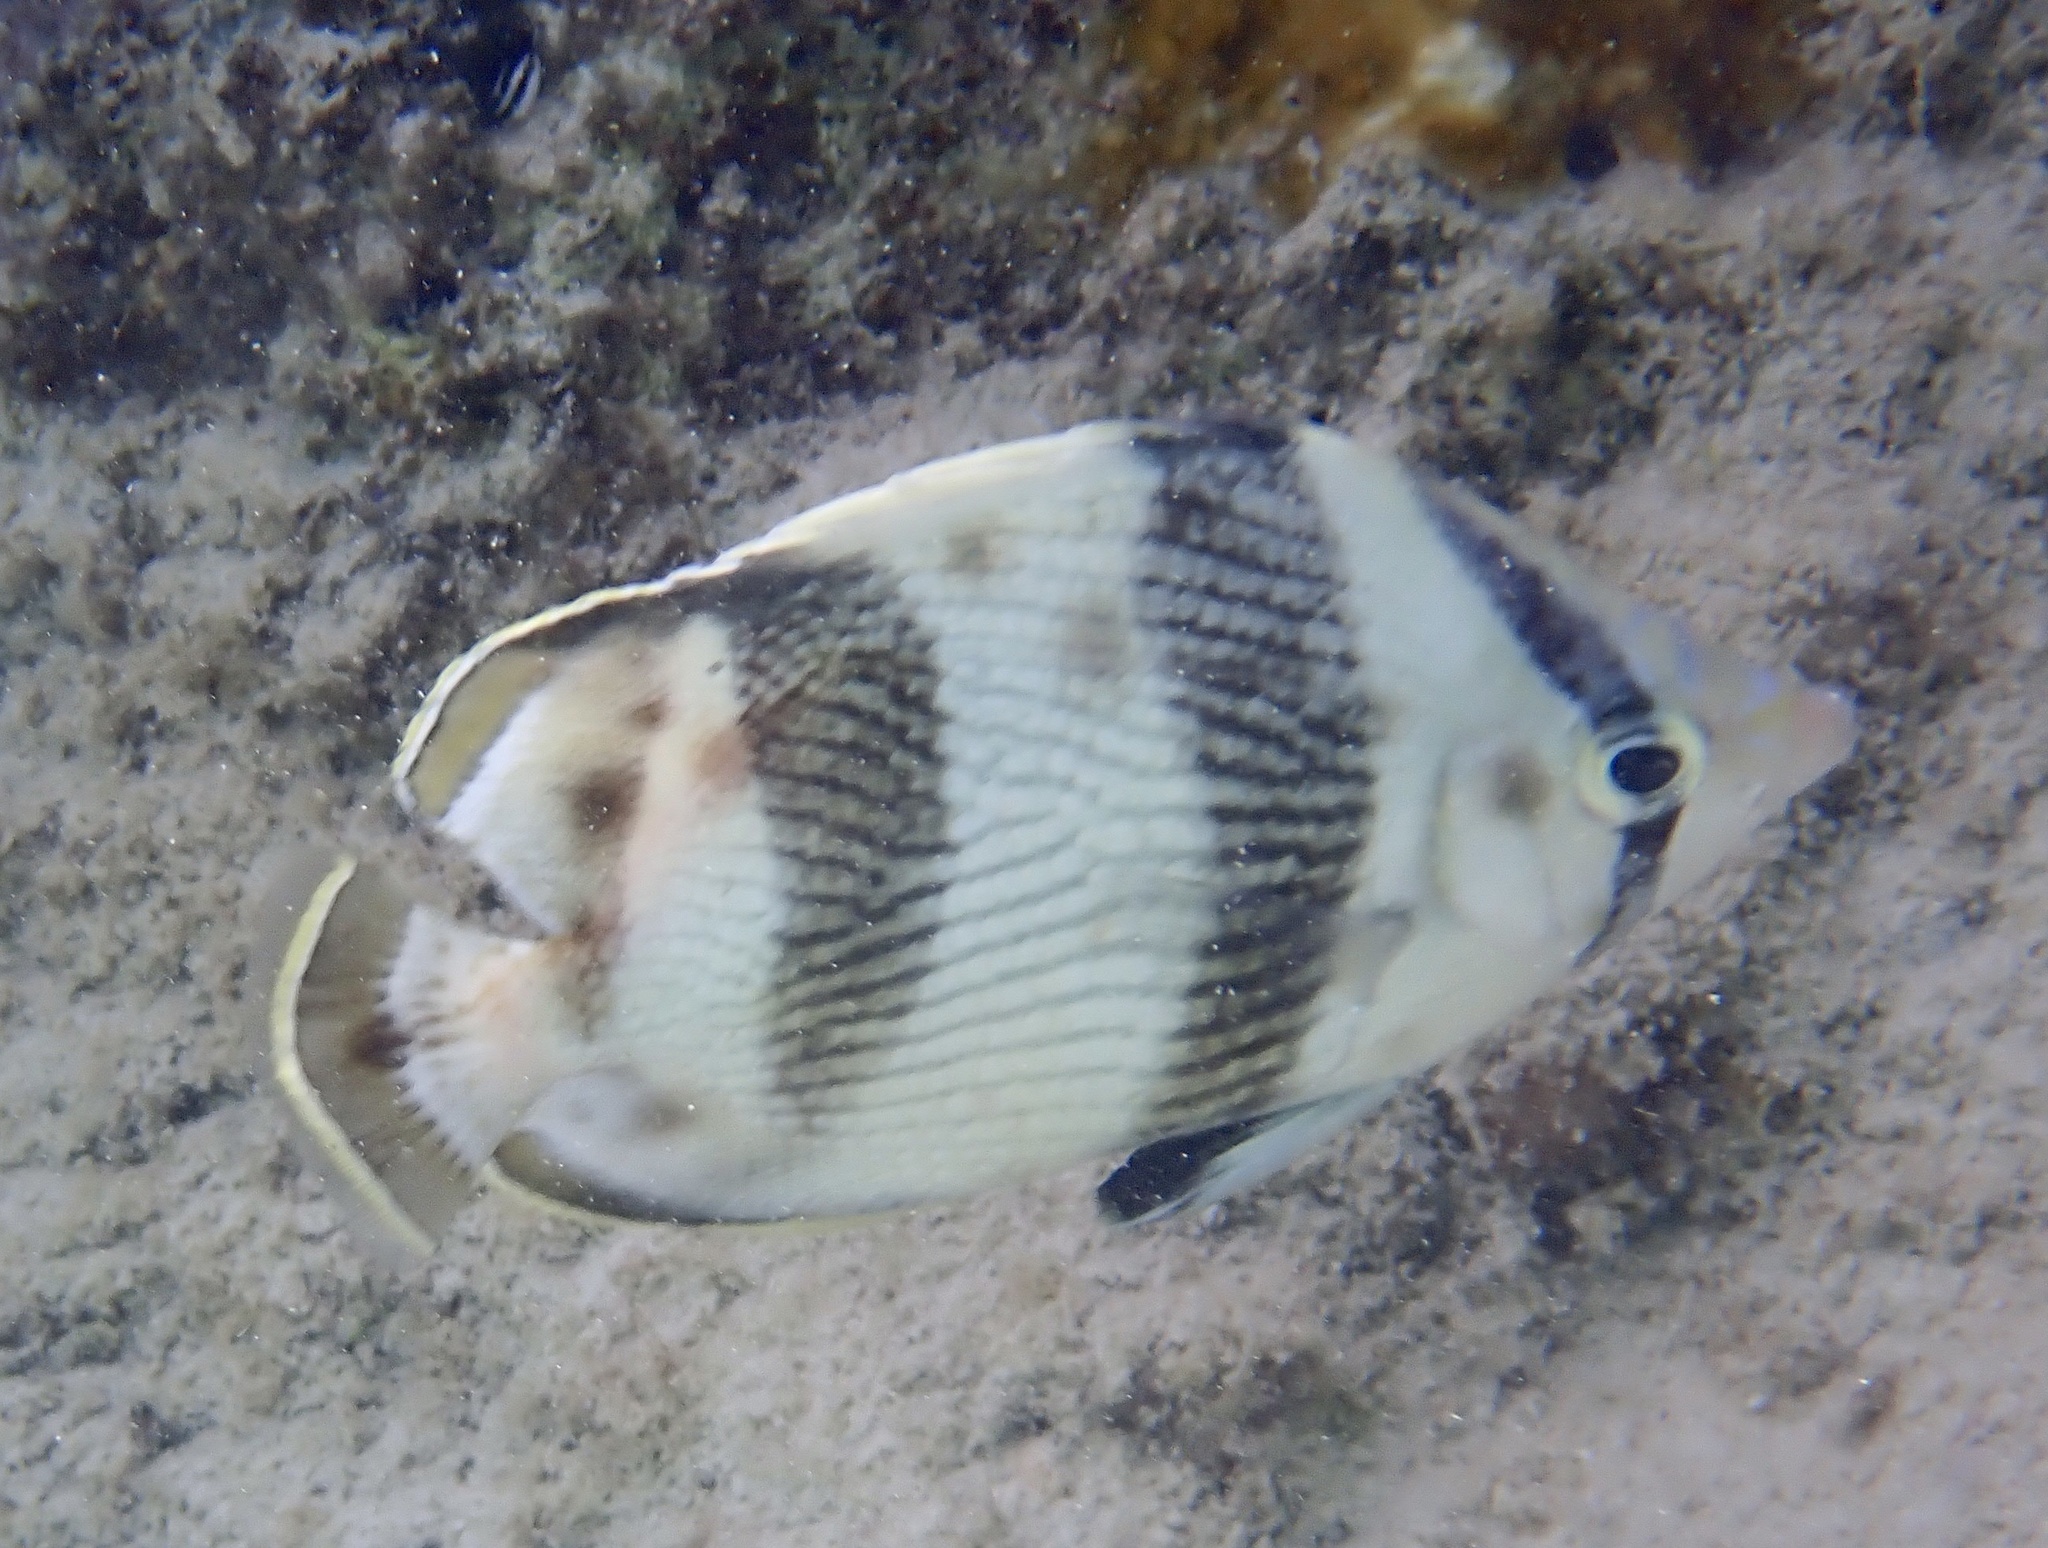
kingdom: Animalia
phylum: Chordata
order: Perciformes
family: Chaetodontidae
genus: Chaetodon
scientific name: Chaetodon striatus
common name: Banded butterflyfish
